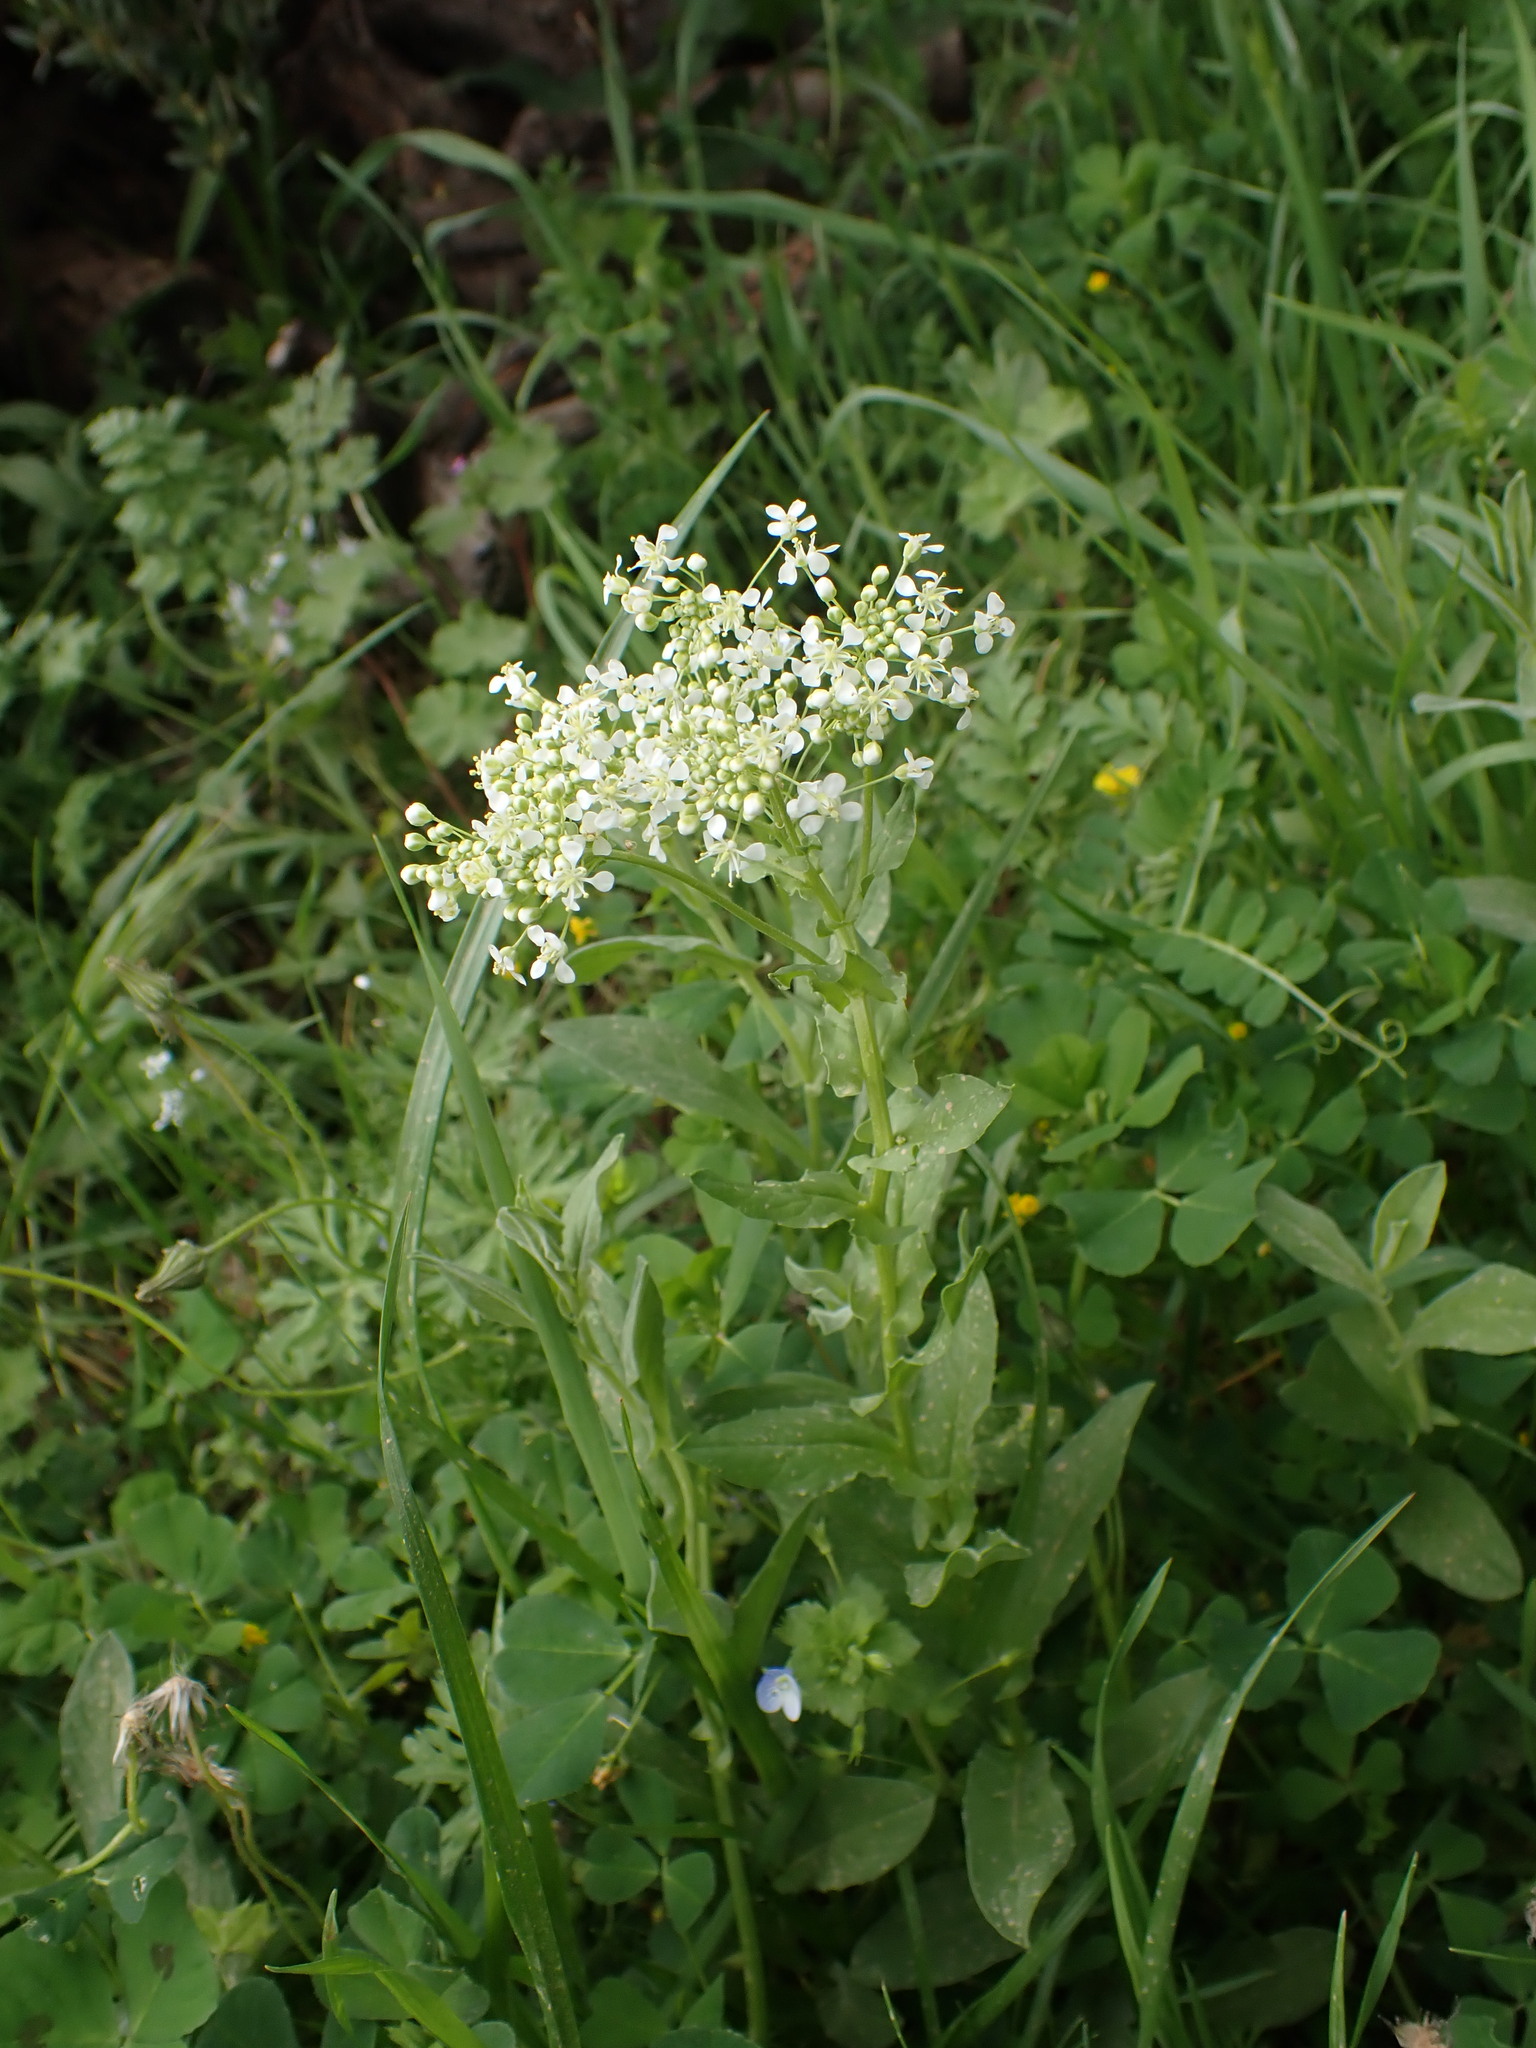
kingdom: Plantae
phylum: Tracheophyta
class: Magnoliopsida
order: Brassicales
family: Brassicaceae
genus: Lepidium
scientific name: Lepidium draba
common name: Hoary cress
